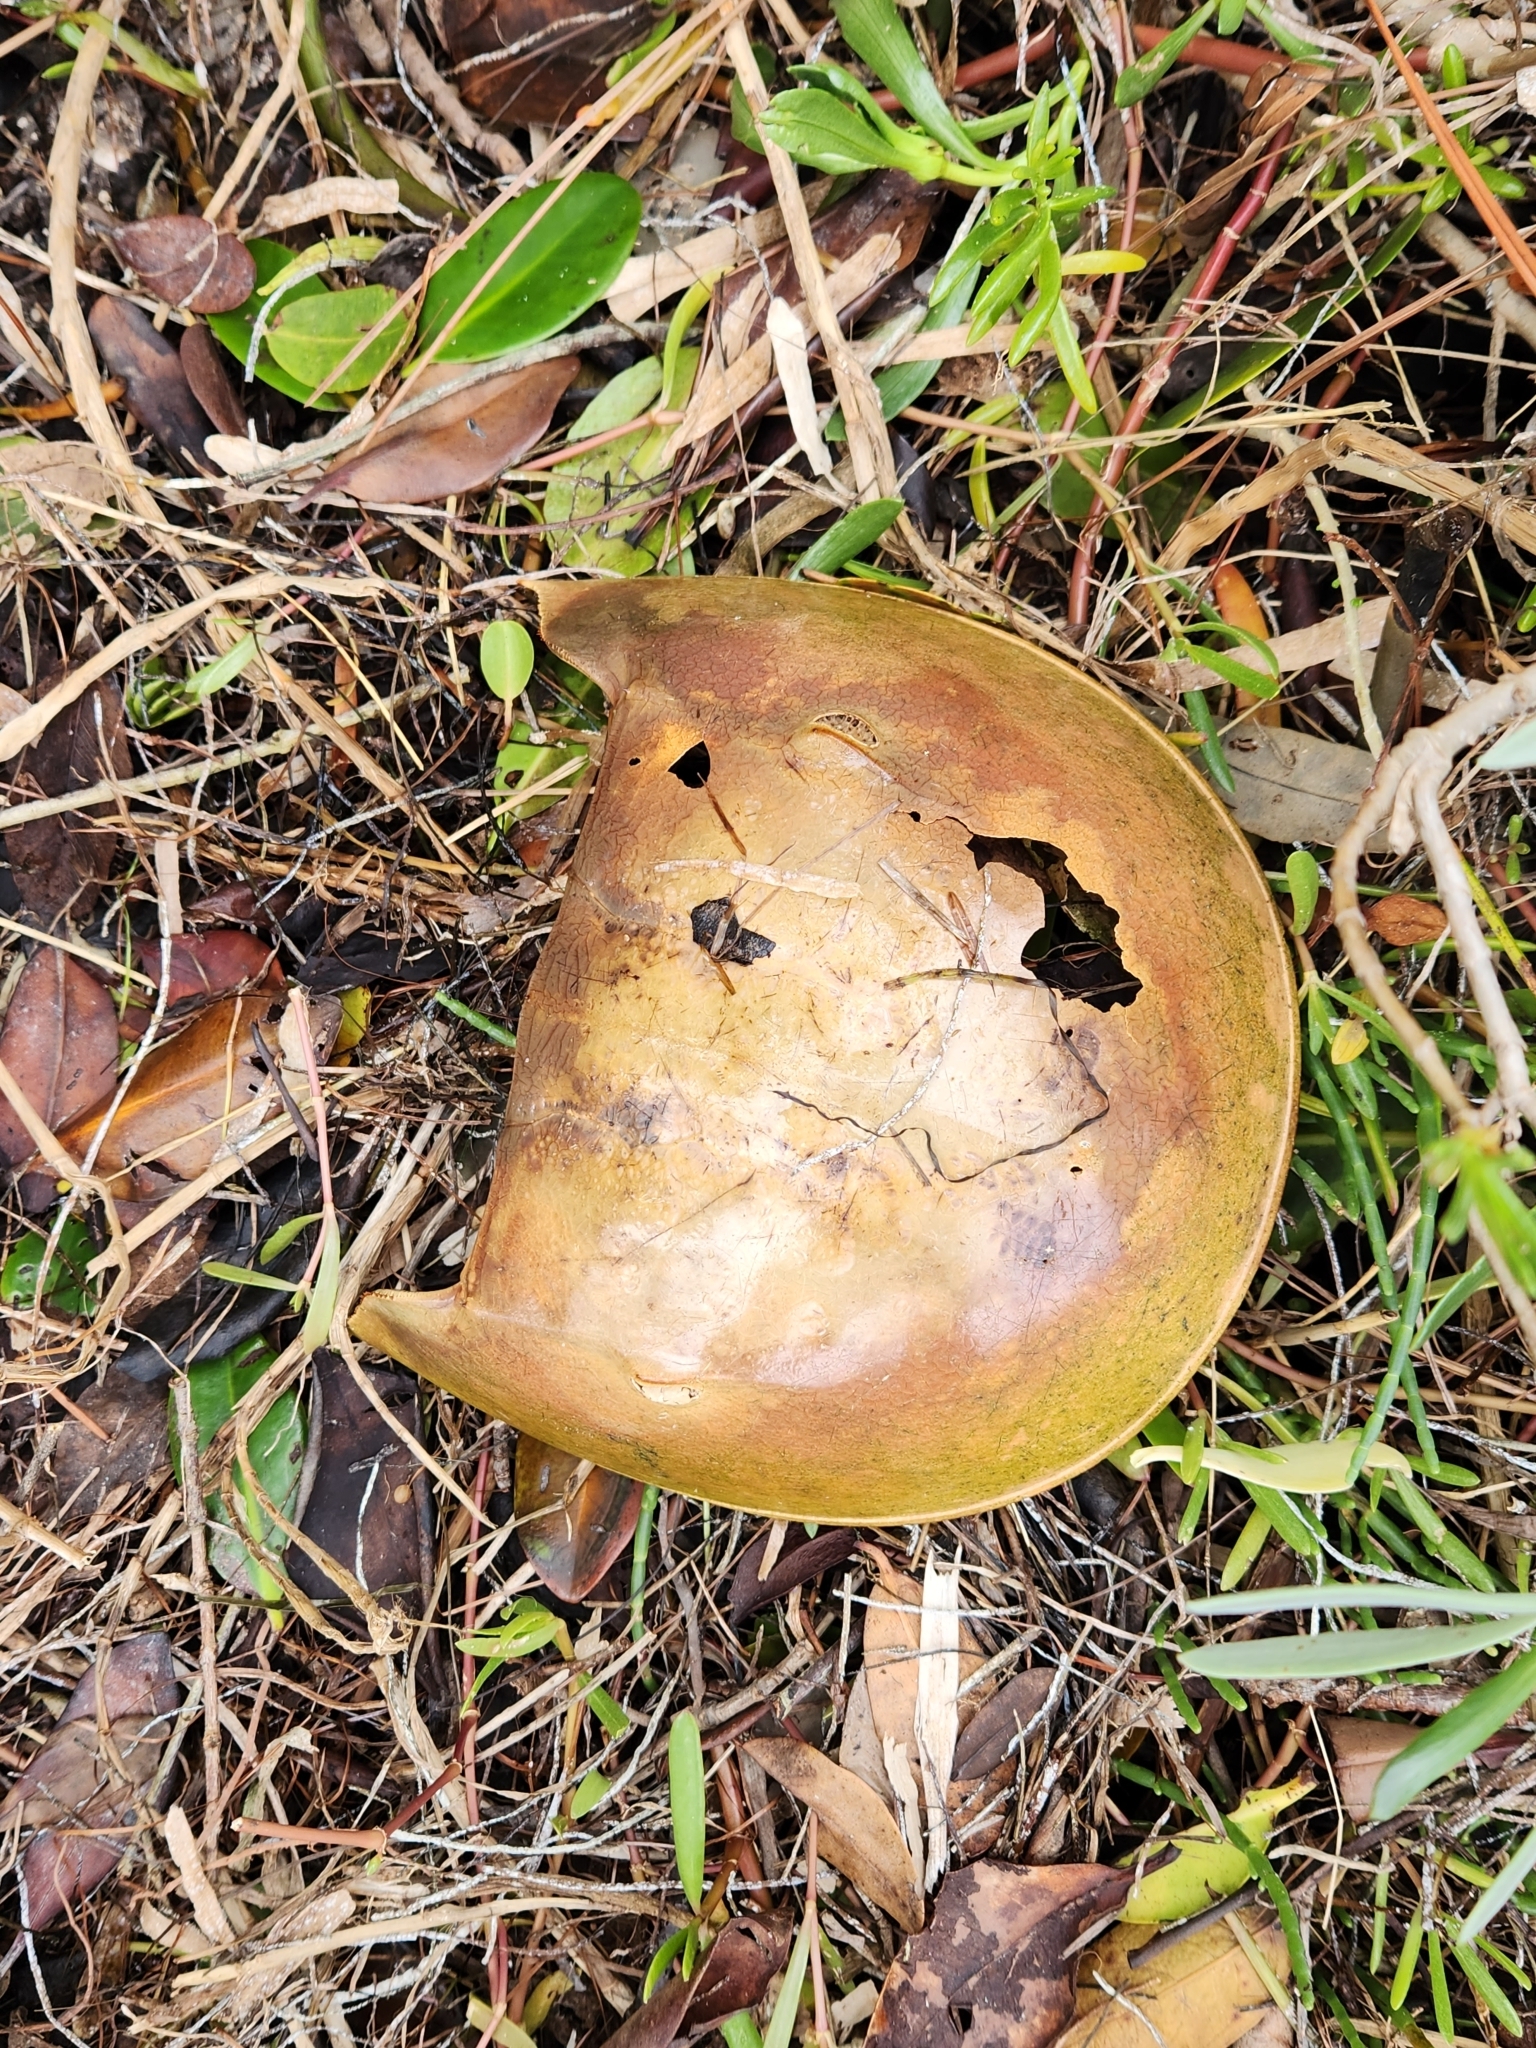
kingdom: Animalia
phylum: Arthropoda
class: Merostomata
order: Xiphosurida
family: Limulidae
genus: Limulus
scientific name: Limulus polyphemus
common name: Horseshoe crab
